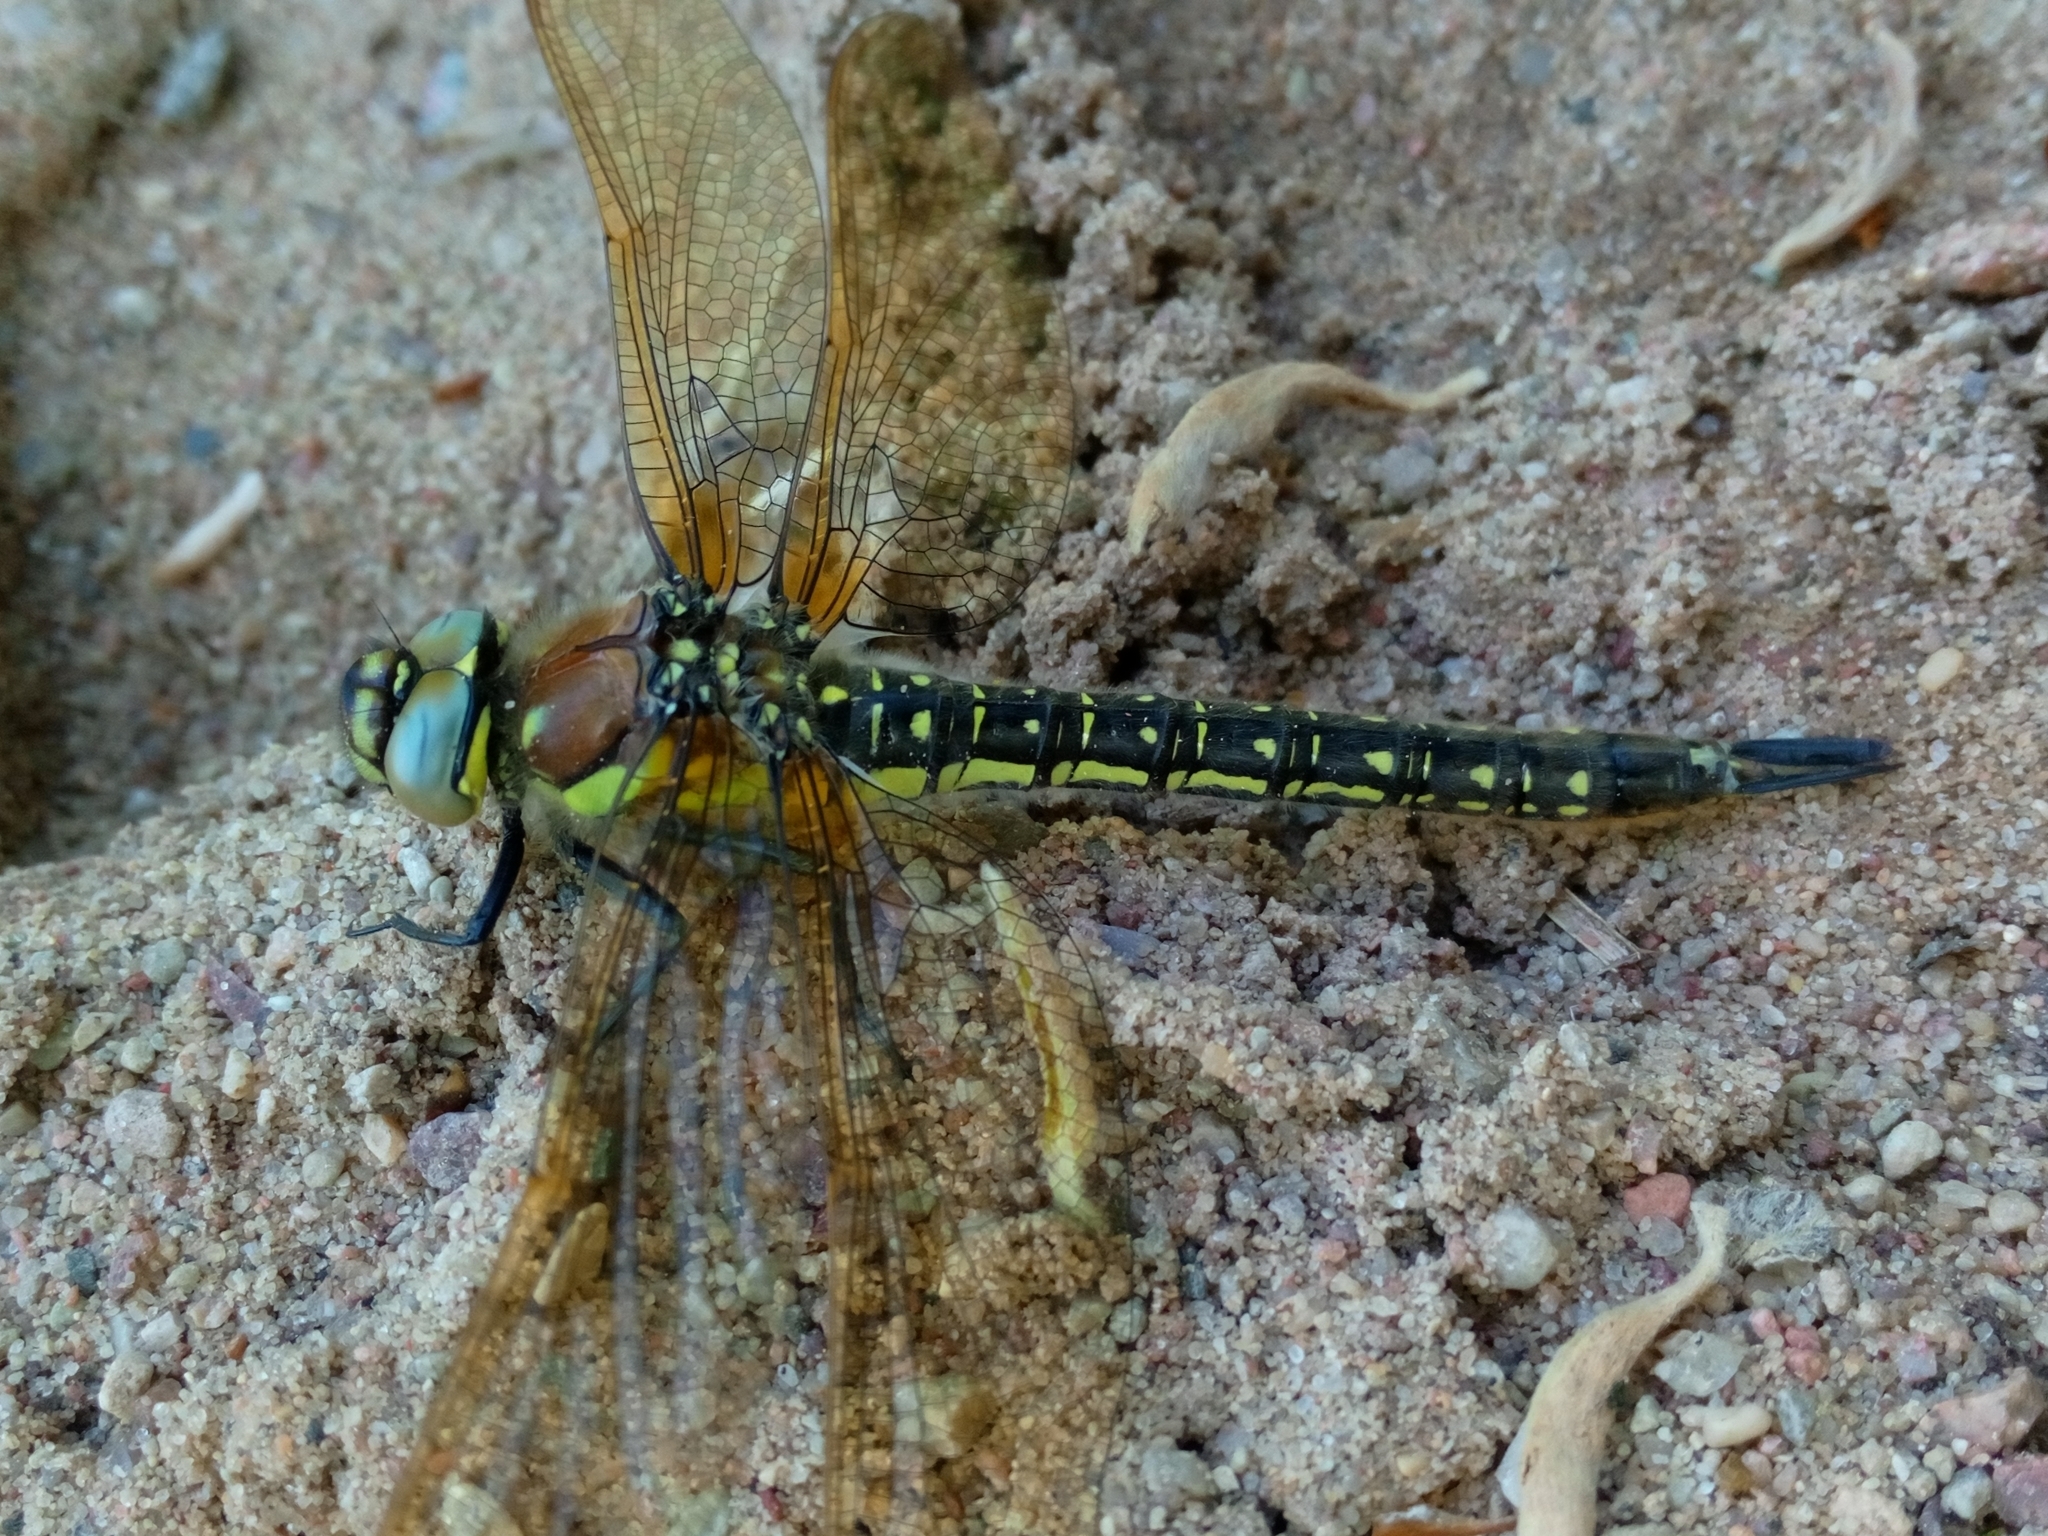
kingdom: Animalia
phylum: Arthropoda
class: Insecta
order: Odonata
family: Aeshnidae
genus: Brachytron
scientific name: Brachytron pratense
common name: Hairy hawker
